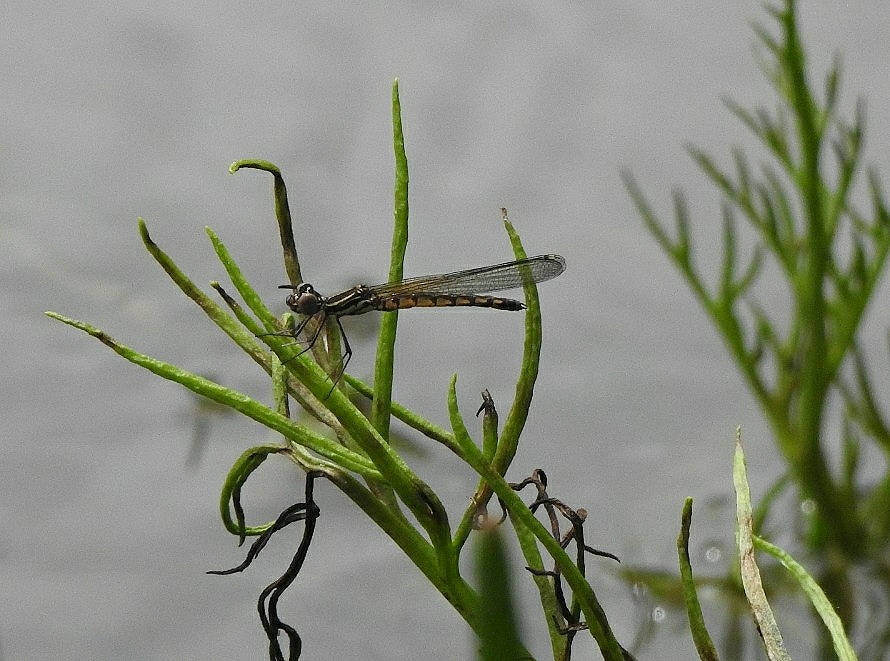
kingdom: Animalia
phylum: Arthropoda
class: Insecta
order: Odonata
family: Chlorocyphidae
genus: Libellago
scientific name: Libellago indica
